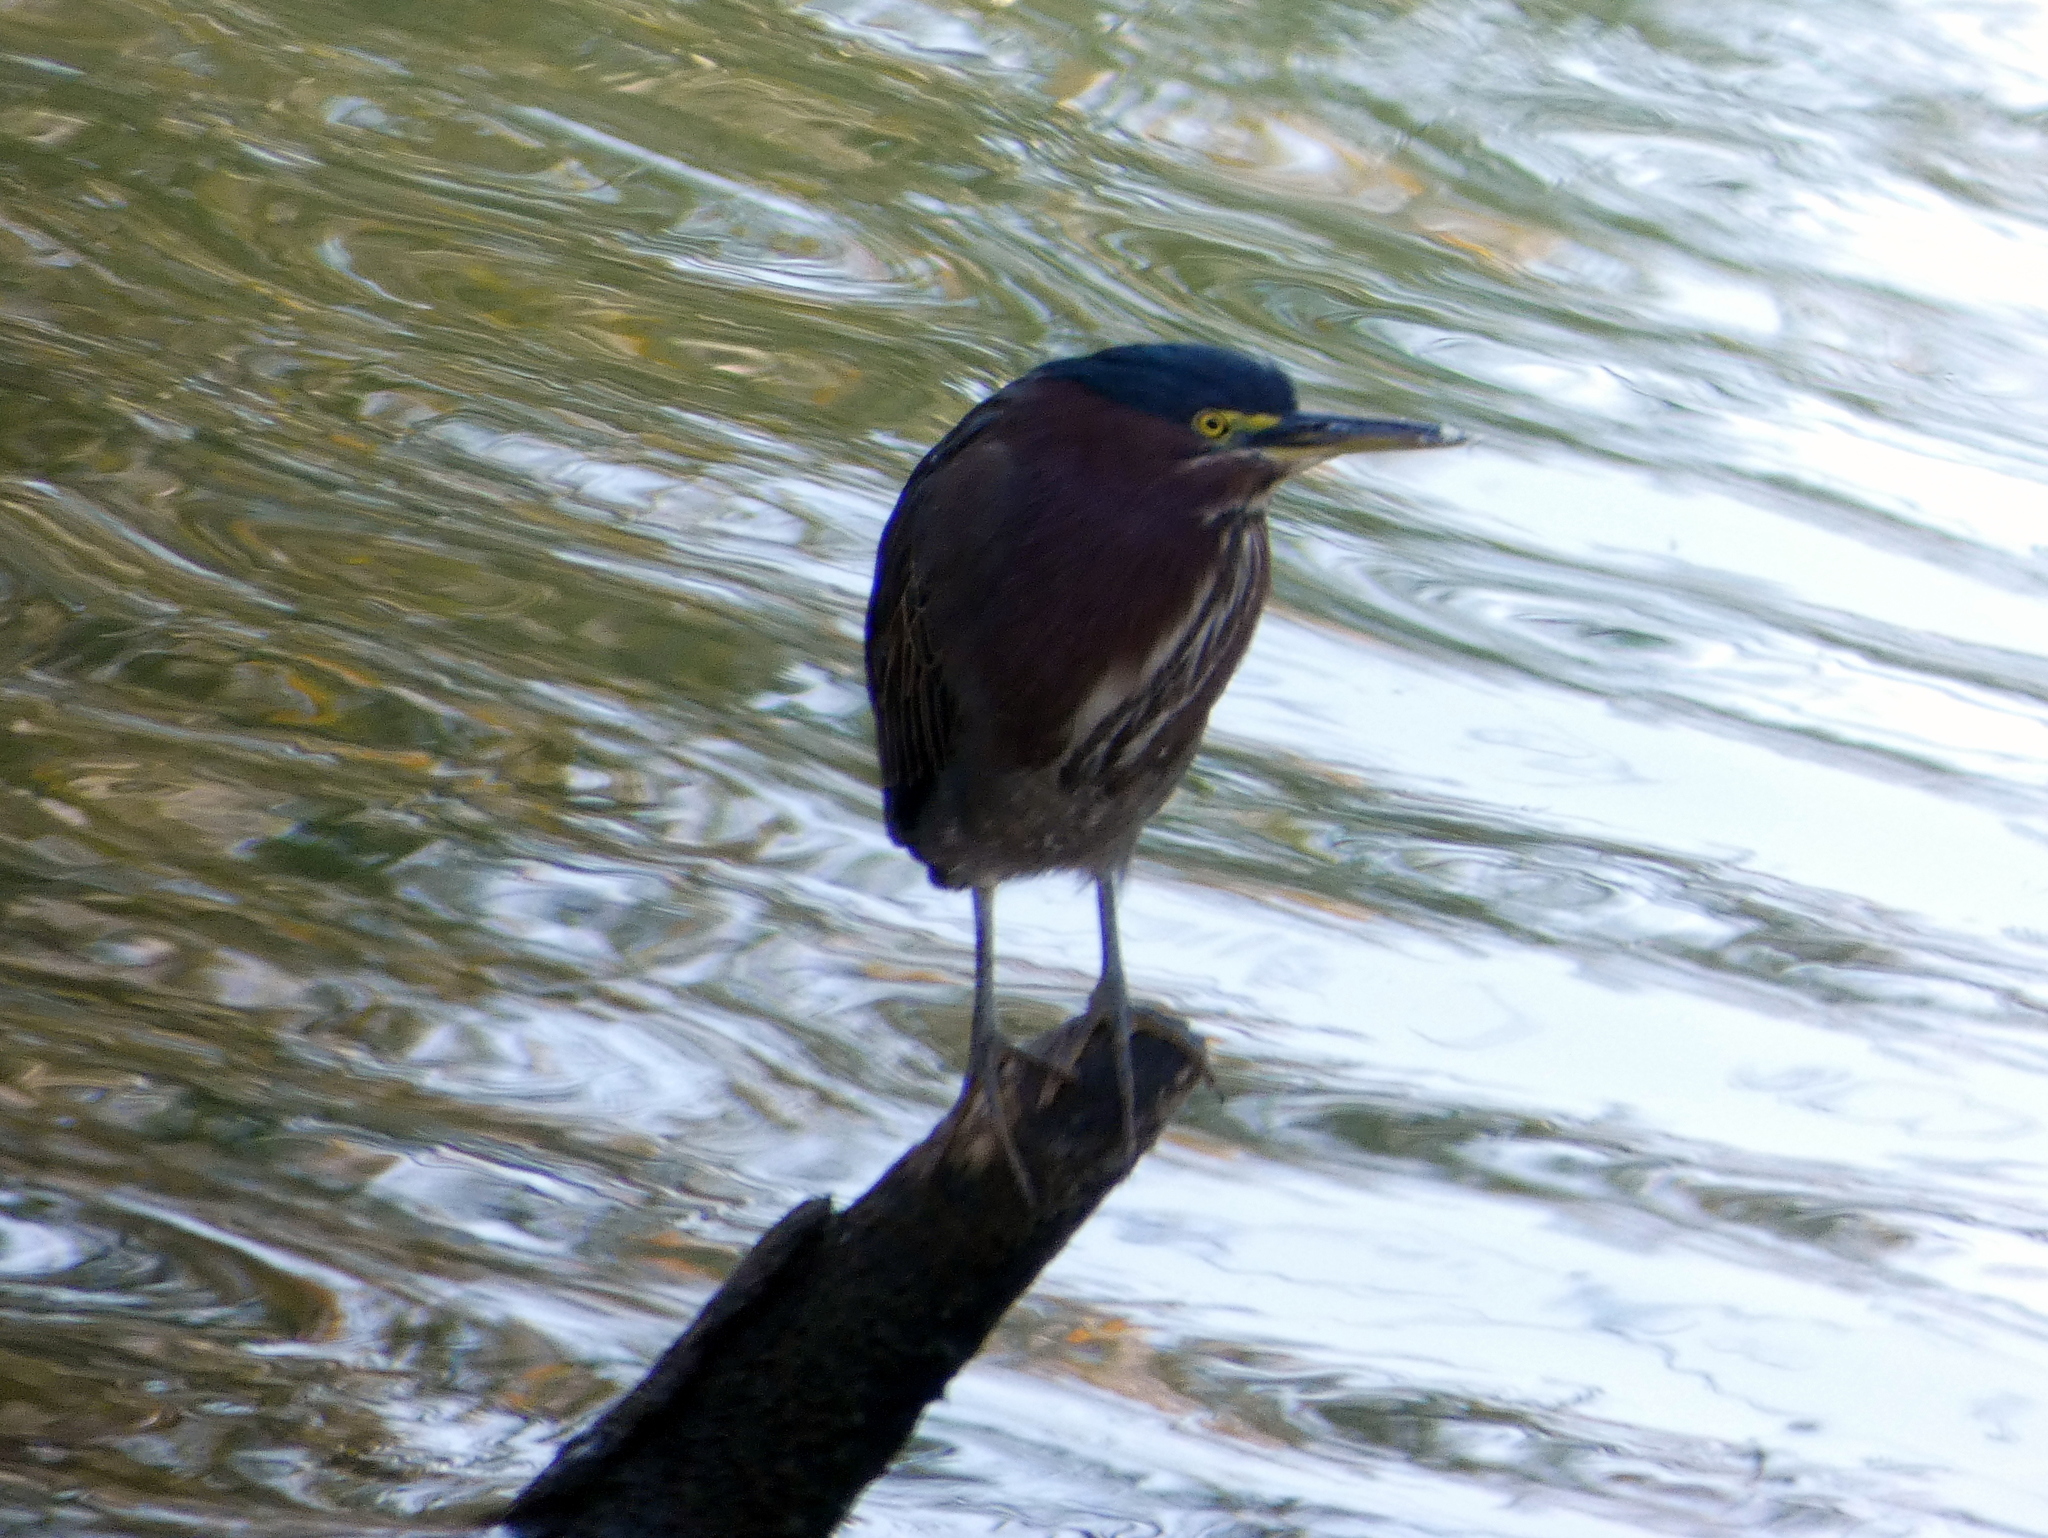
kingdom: Animalia
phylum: Chordata
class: Aves
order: Pelecaniformes
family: Ardeidae
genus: Butorides
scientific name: Butorides virescens
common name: Green heron
